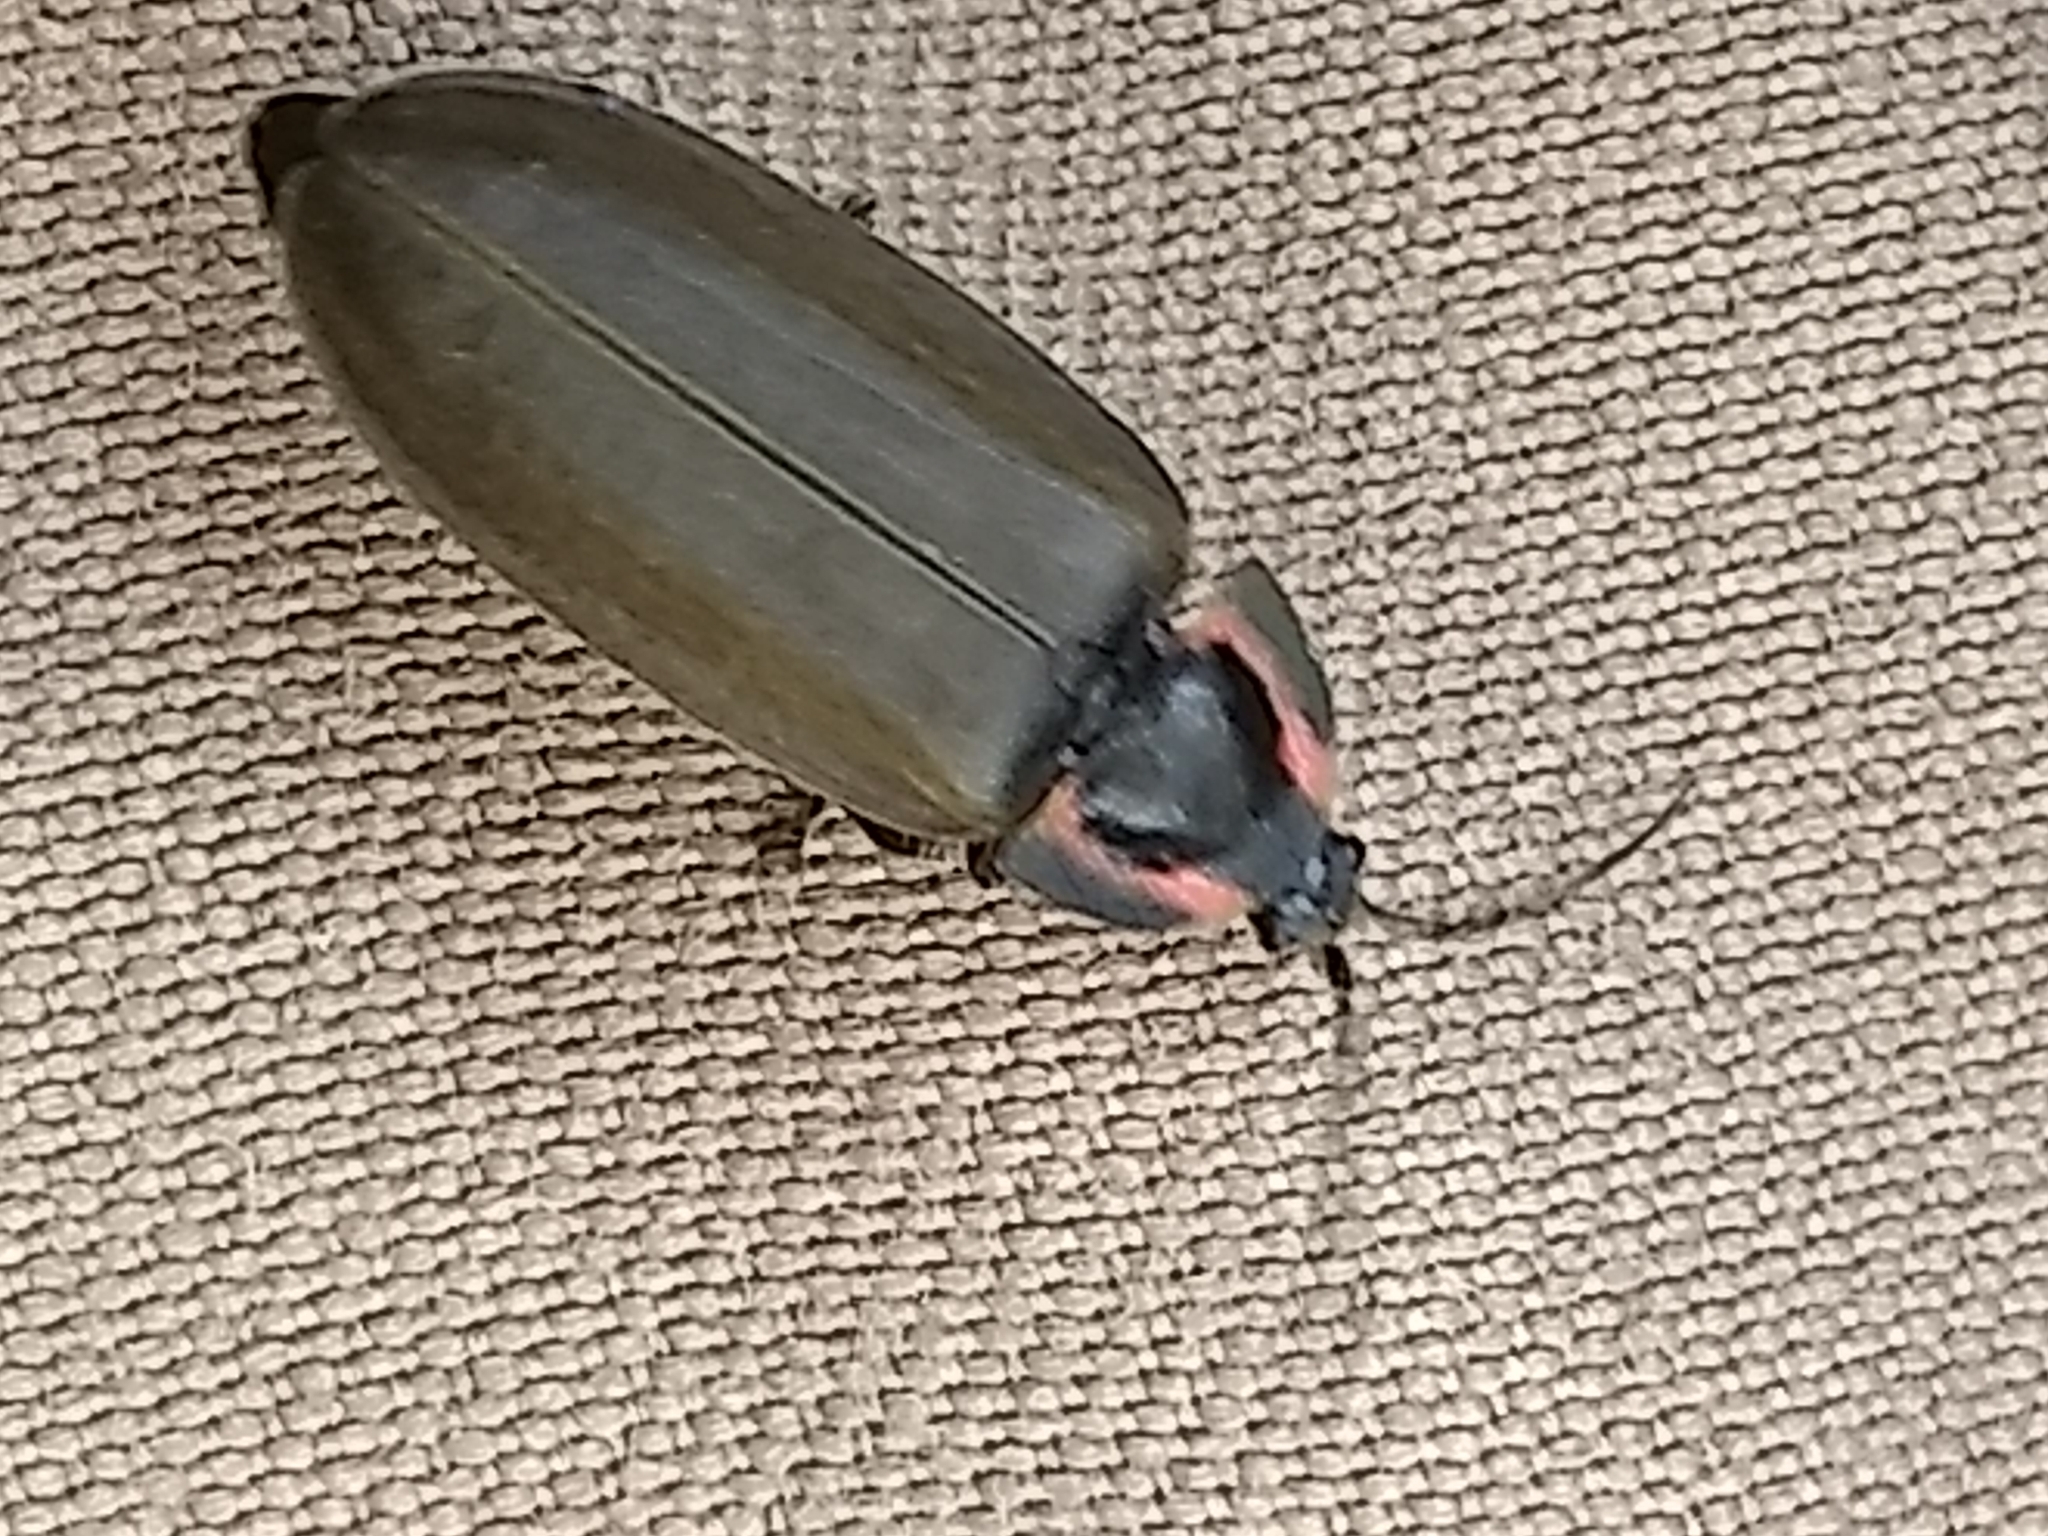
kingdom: Animalia
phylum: Arthropoda
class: Insecta
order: Coleoptera
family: Lampyridae
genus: Photinus
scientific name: Photinus corrusca
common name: Winter firefly
